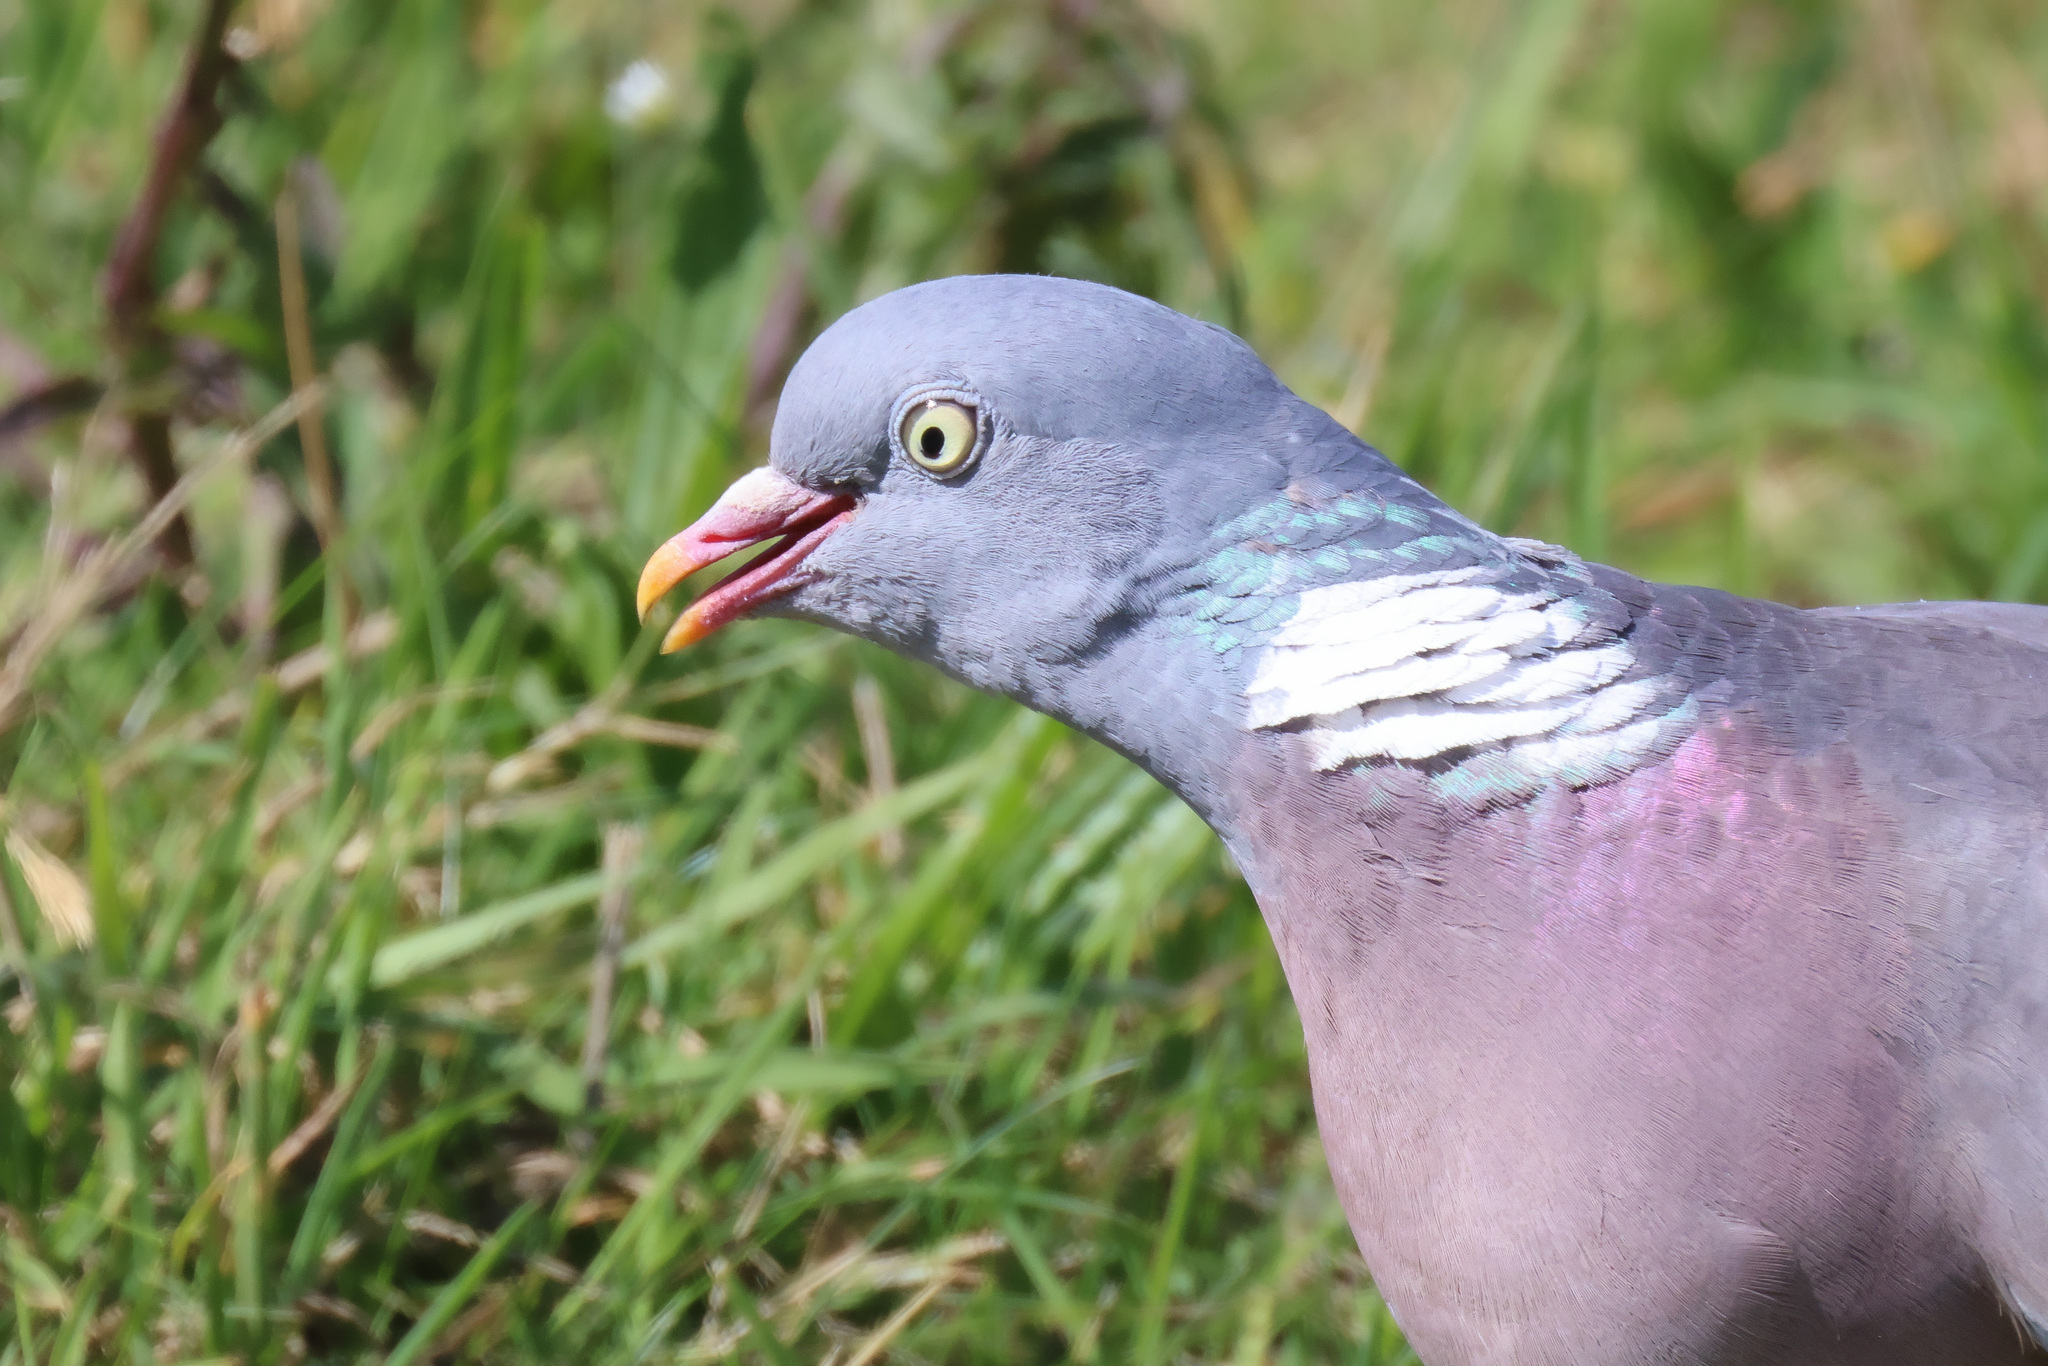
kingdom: Animalia
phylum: Chordata
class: Aves
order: Columbiformes
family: Columbidae
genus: Columba
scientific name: Columba palumbus
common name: Common wood pigeon
